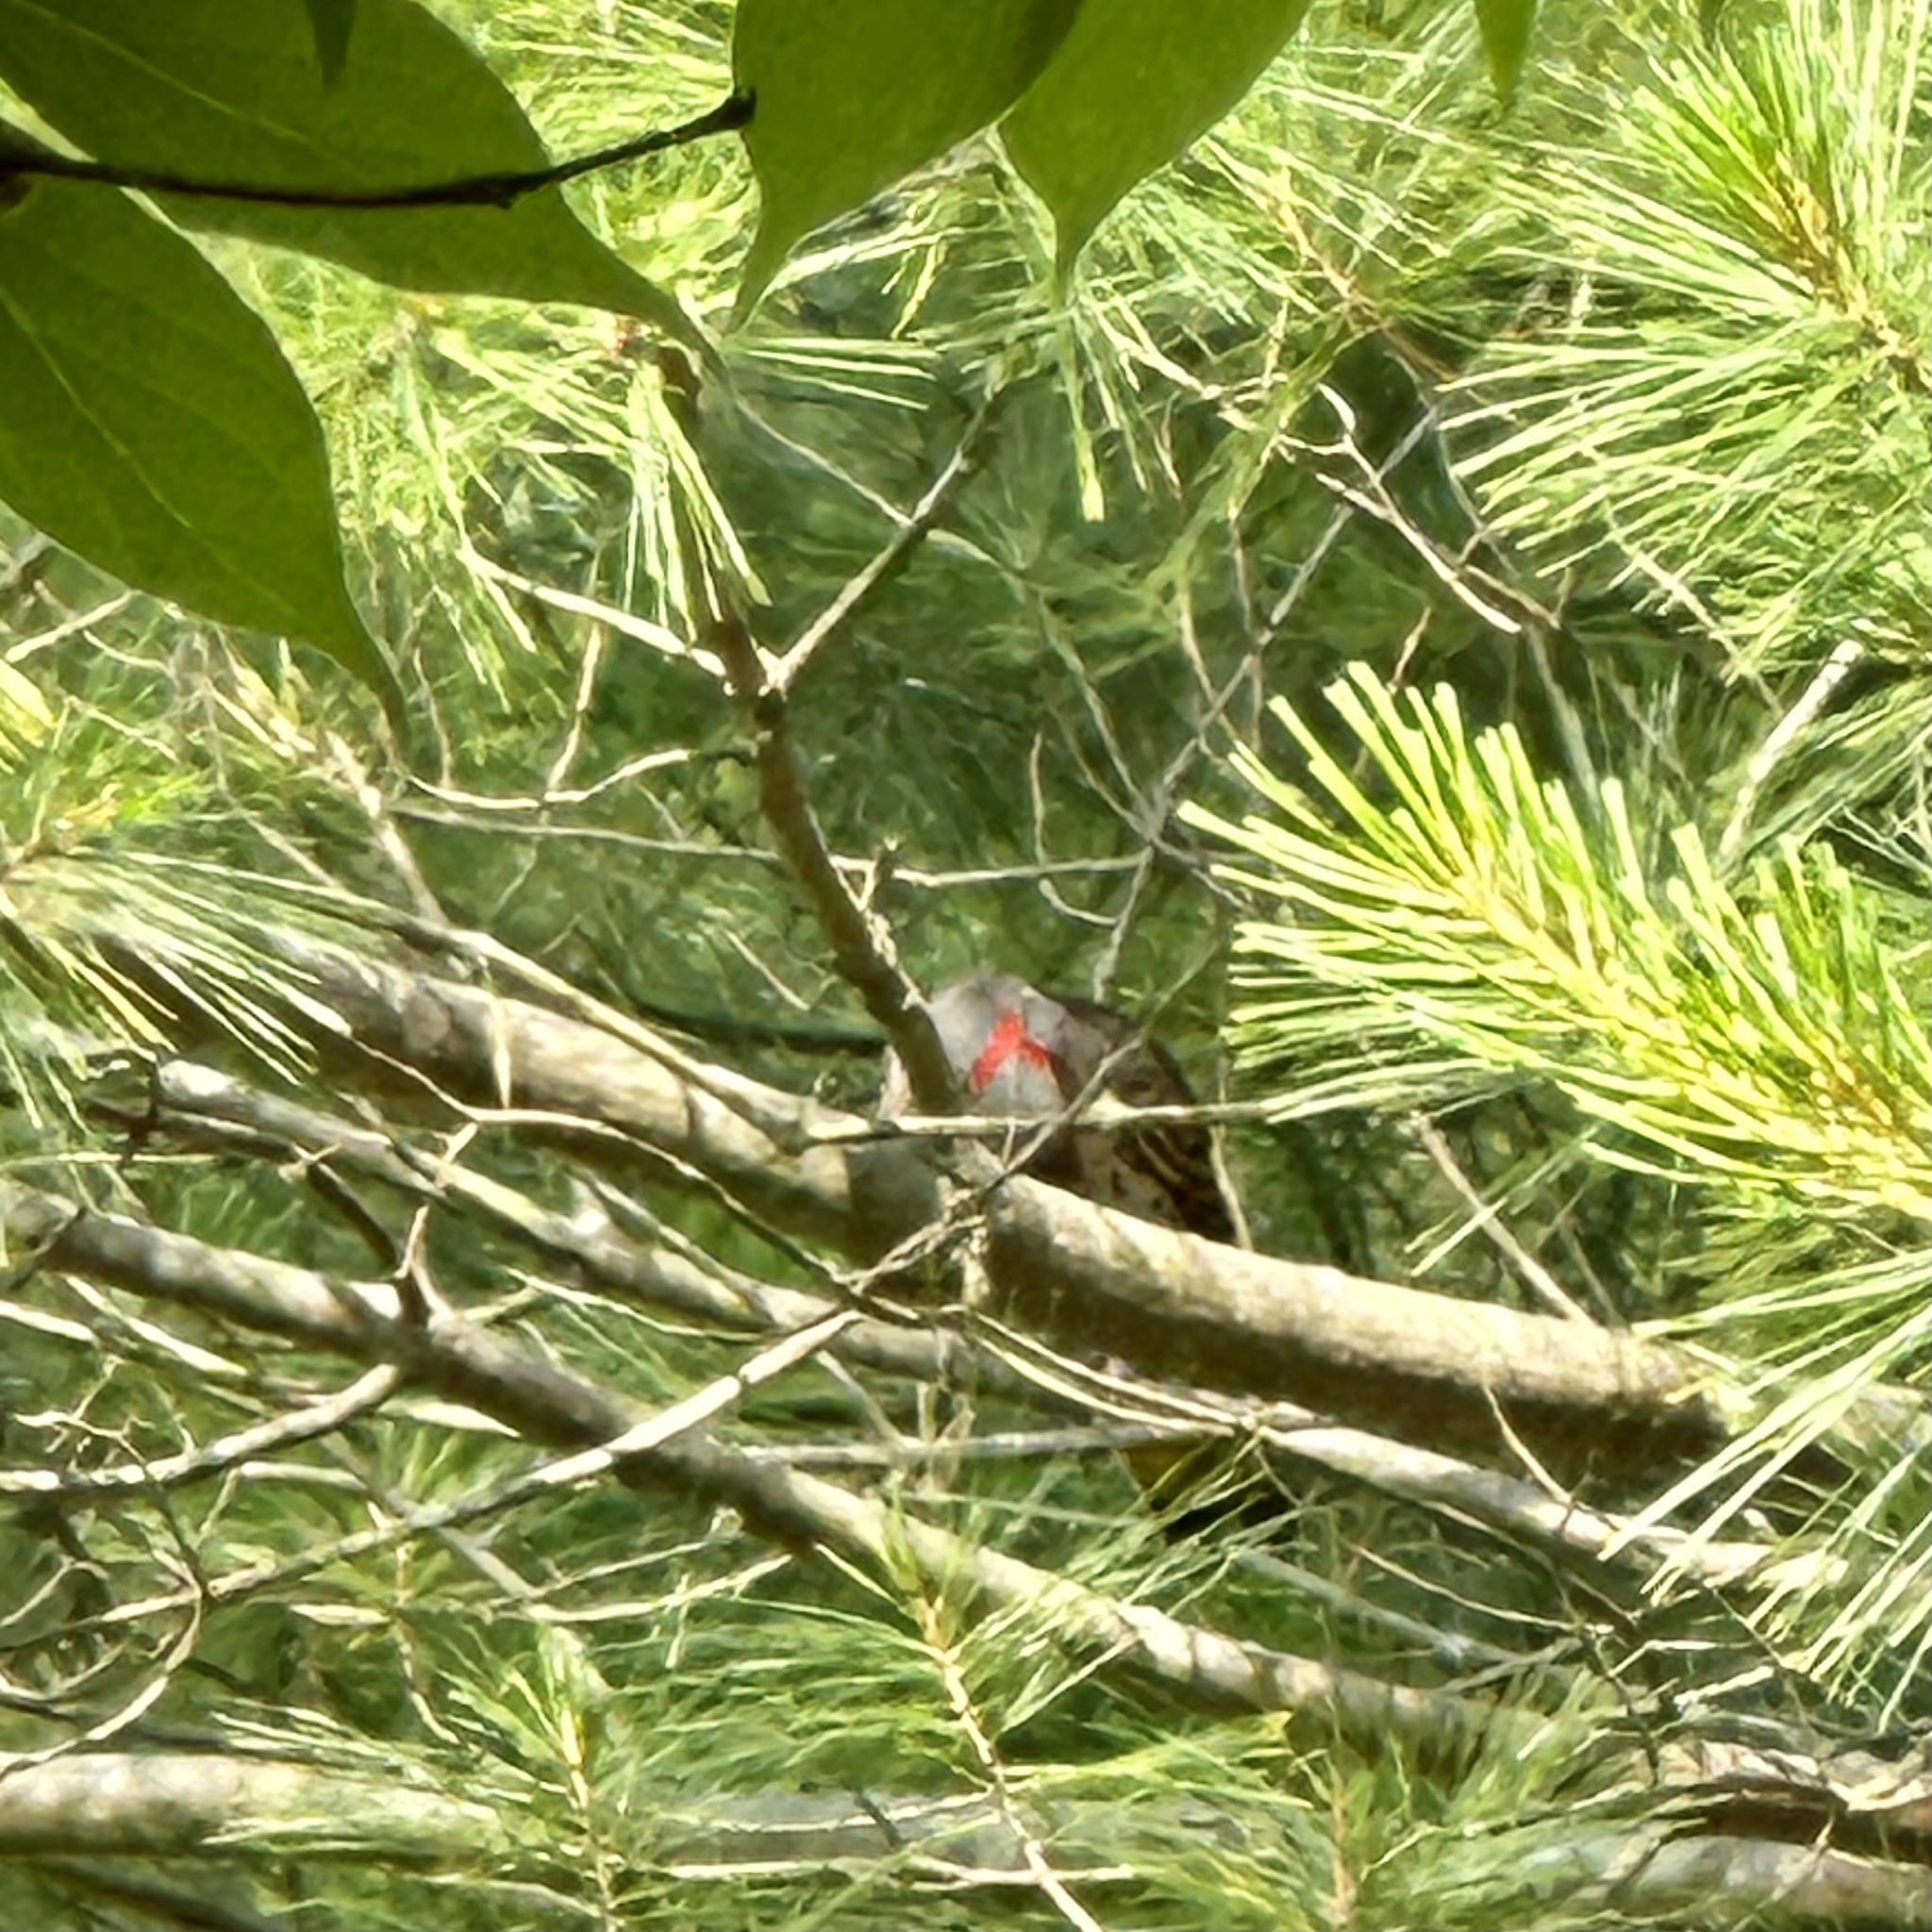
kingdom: Animalia
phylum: Chordata
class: Aves
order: Piciformes
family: Picidae
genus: Colaptes
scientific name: Colaptes auratus
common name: Northern flicker
